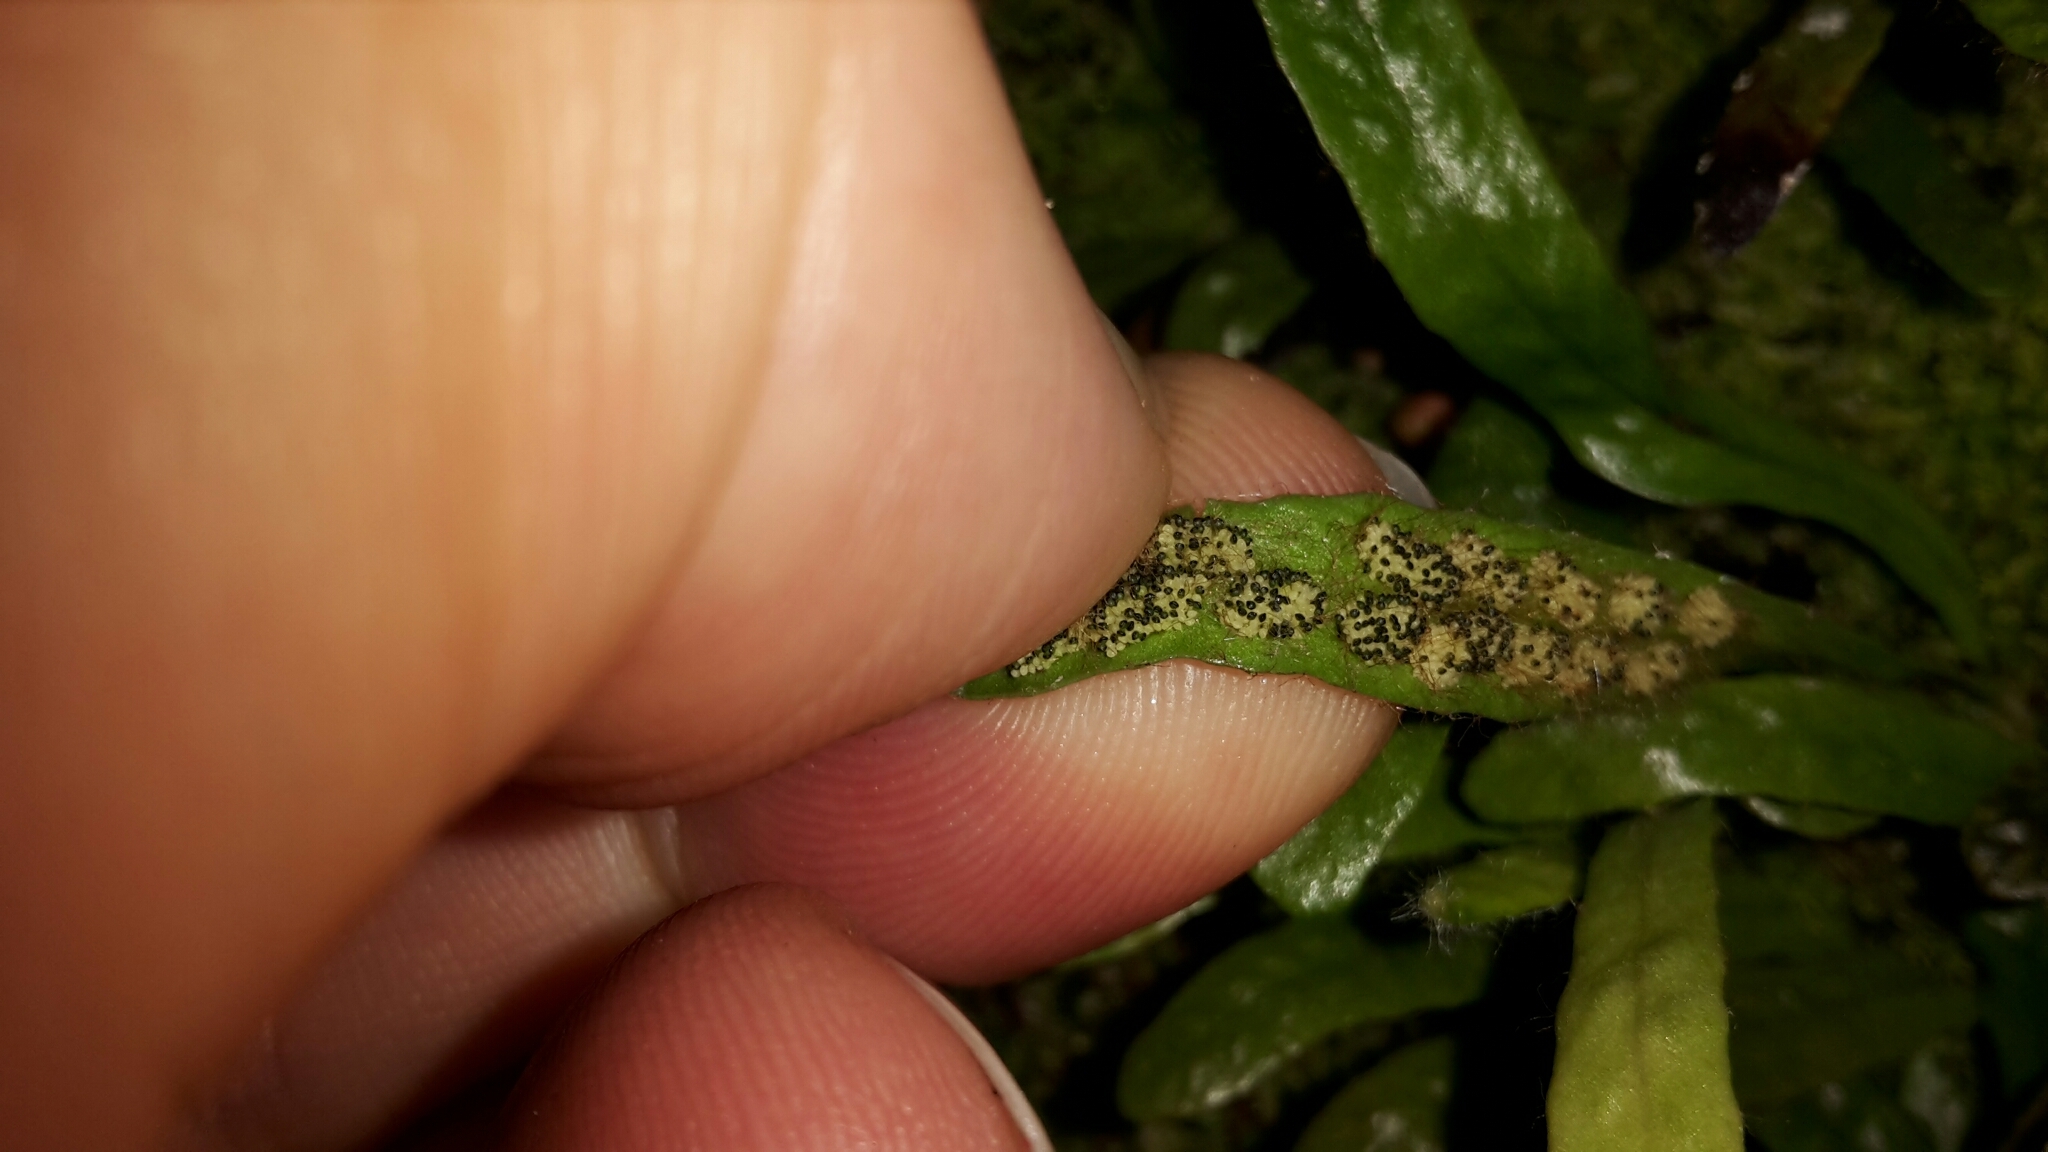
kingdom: Plantae
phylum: Tracheophyta
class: Polypodiopsida
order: Polypodiales
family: Polypodiaceae
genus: Notogrammitis
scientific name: Notogrammitis patagonica
